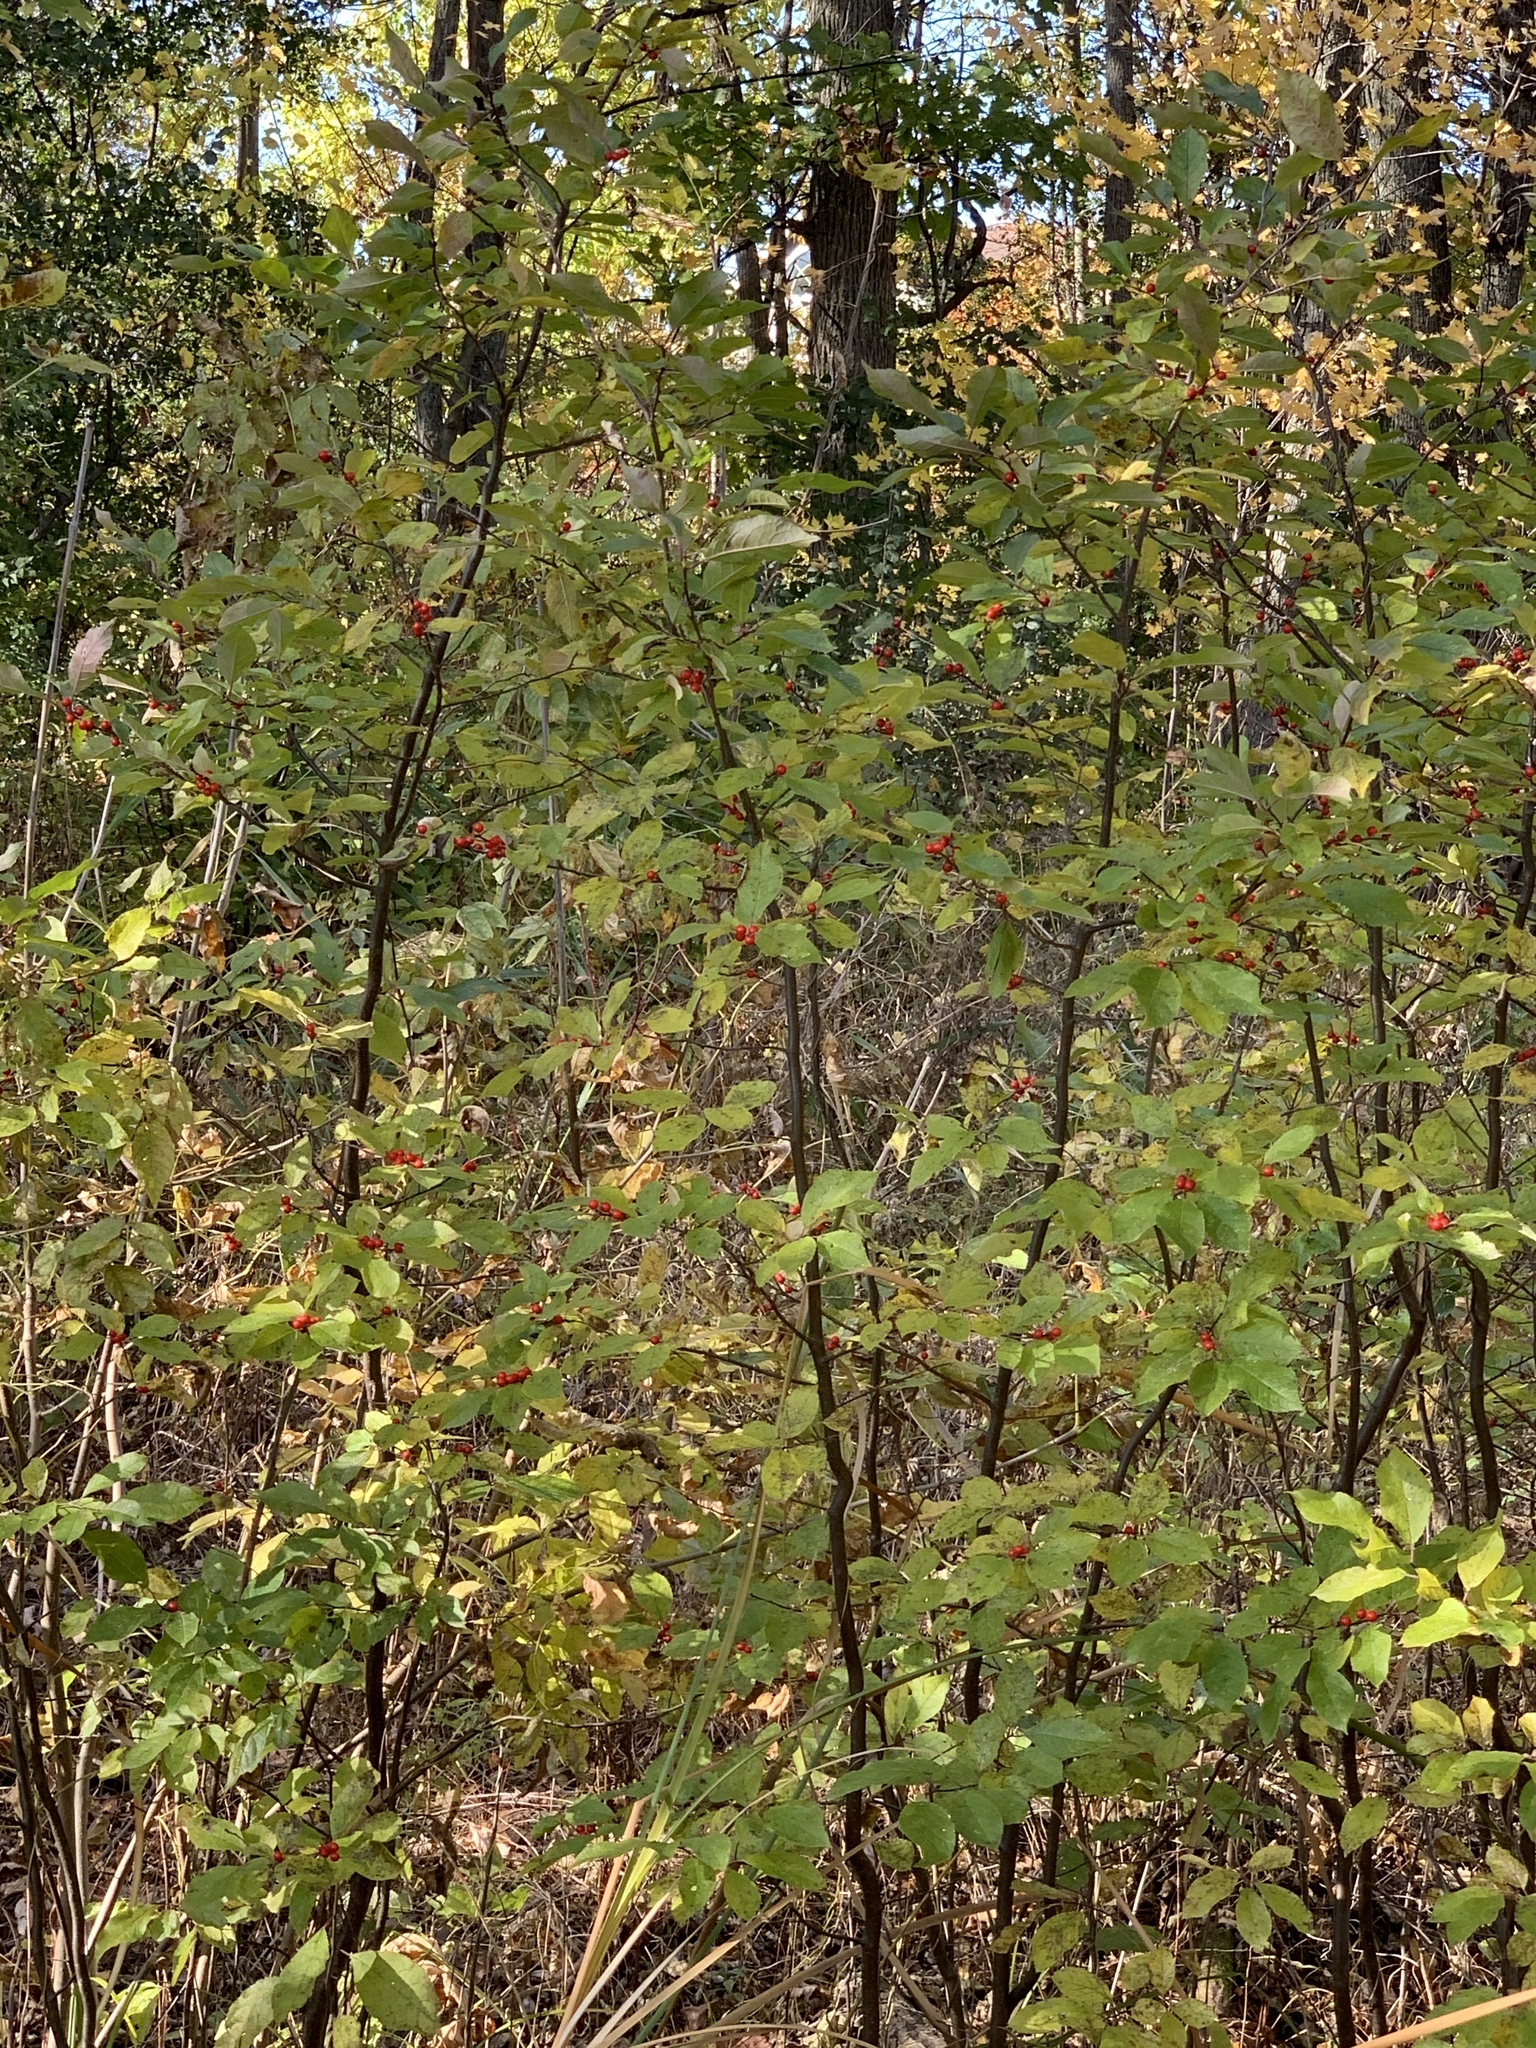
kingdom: Plantae
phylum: Tracheophyta
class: Magnoliopsida
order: Aquifoliales
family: Aquifoliaceae
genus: Ilex
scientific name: Ilex verticillata
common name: Virginia winterberry
